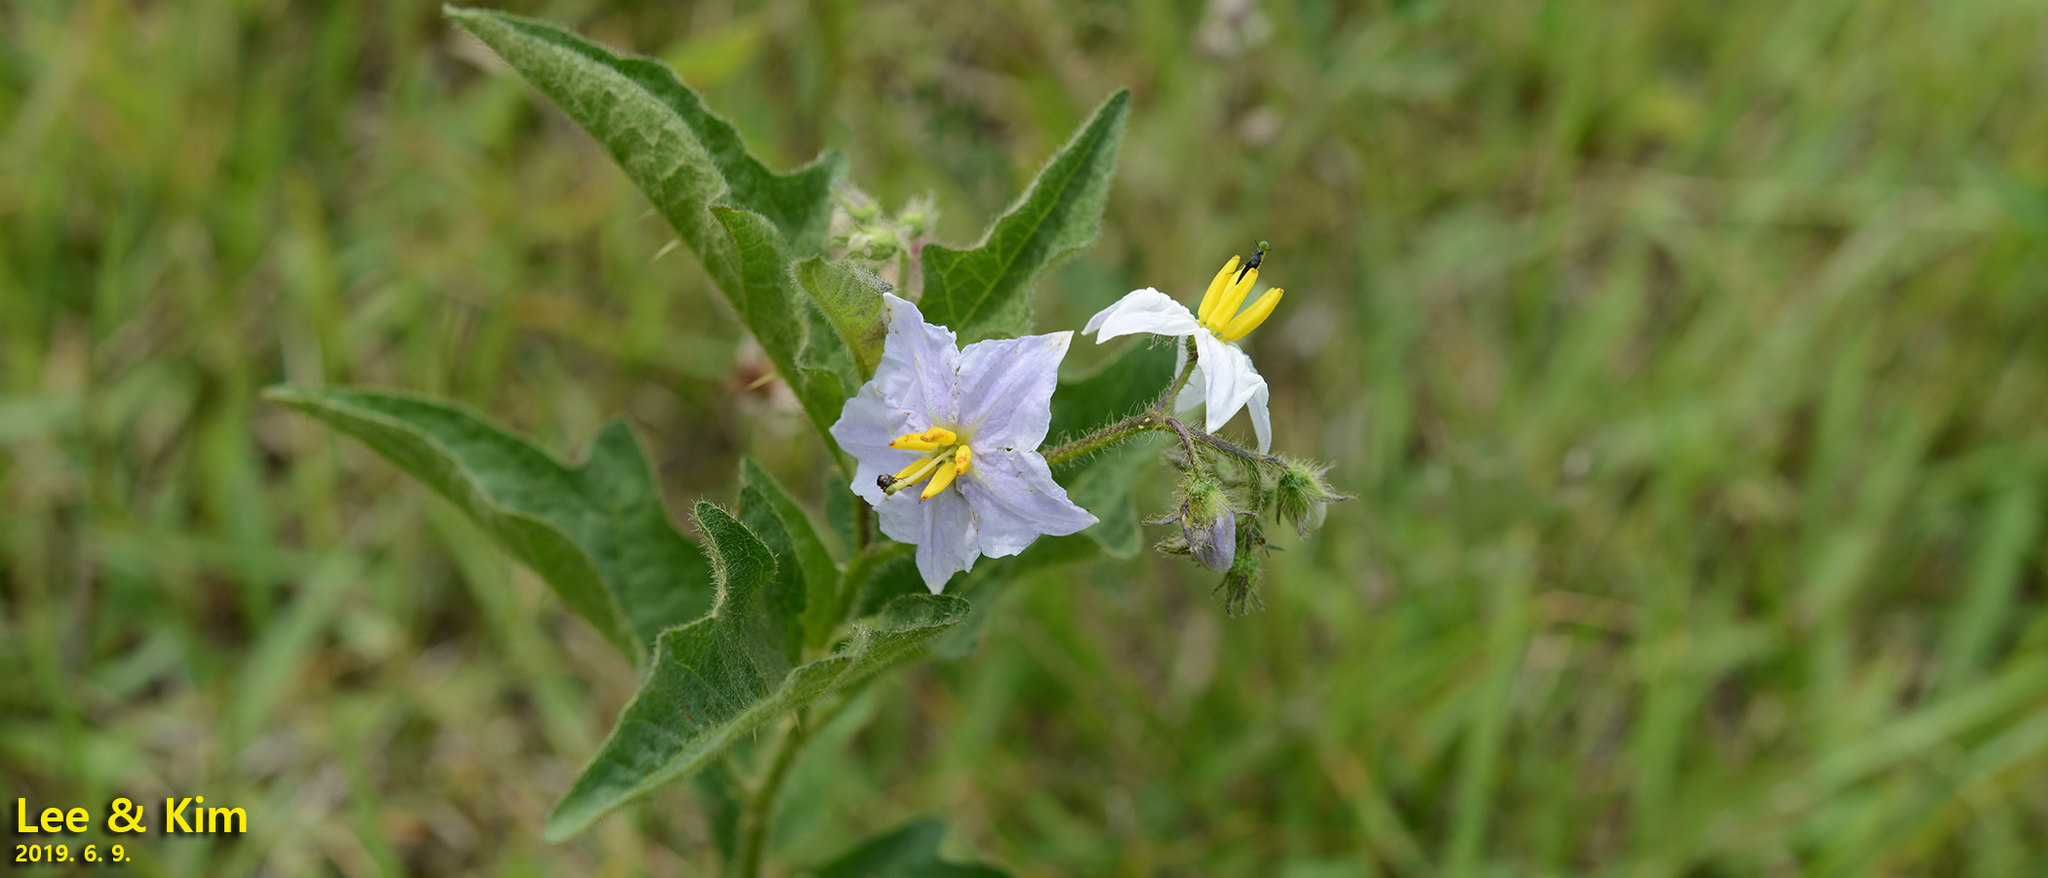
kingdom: Plantae
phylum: Tracheophyta
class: Magnoliopsida
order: Solanales
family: Solanaceae
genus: Solanum
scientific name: Solanum carolinense
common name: Horse-nettle
